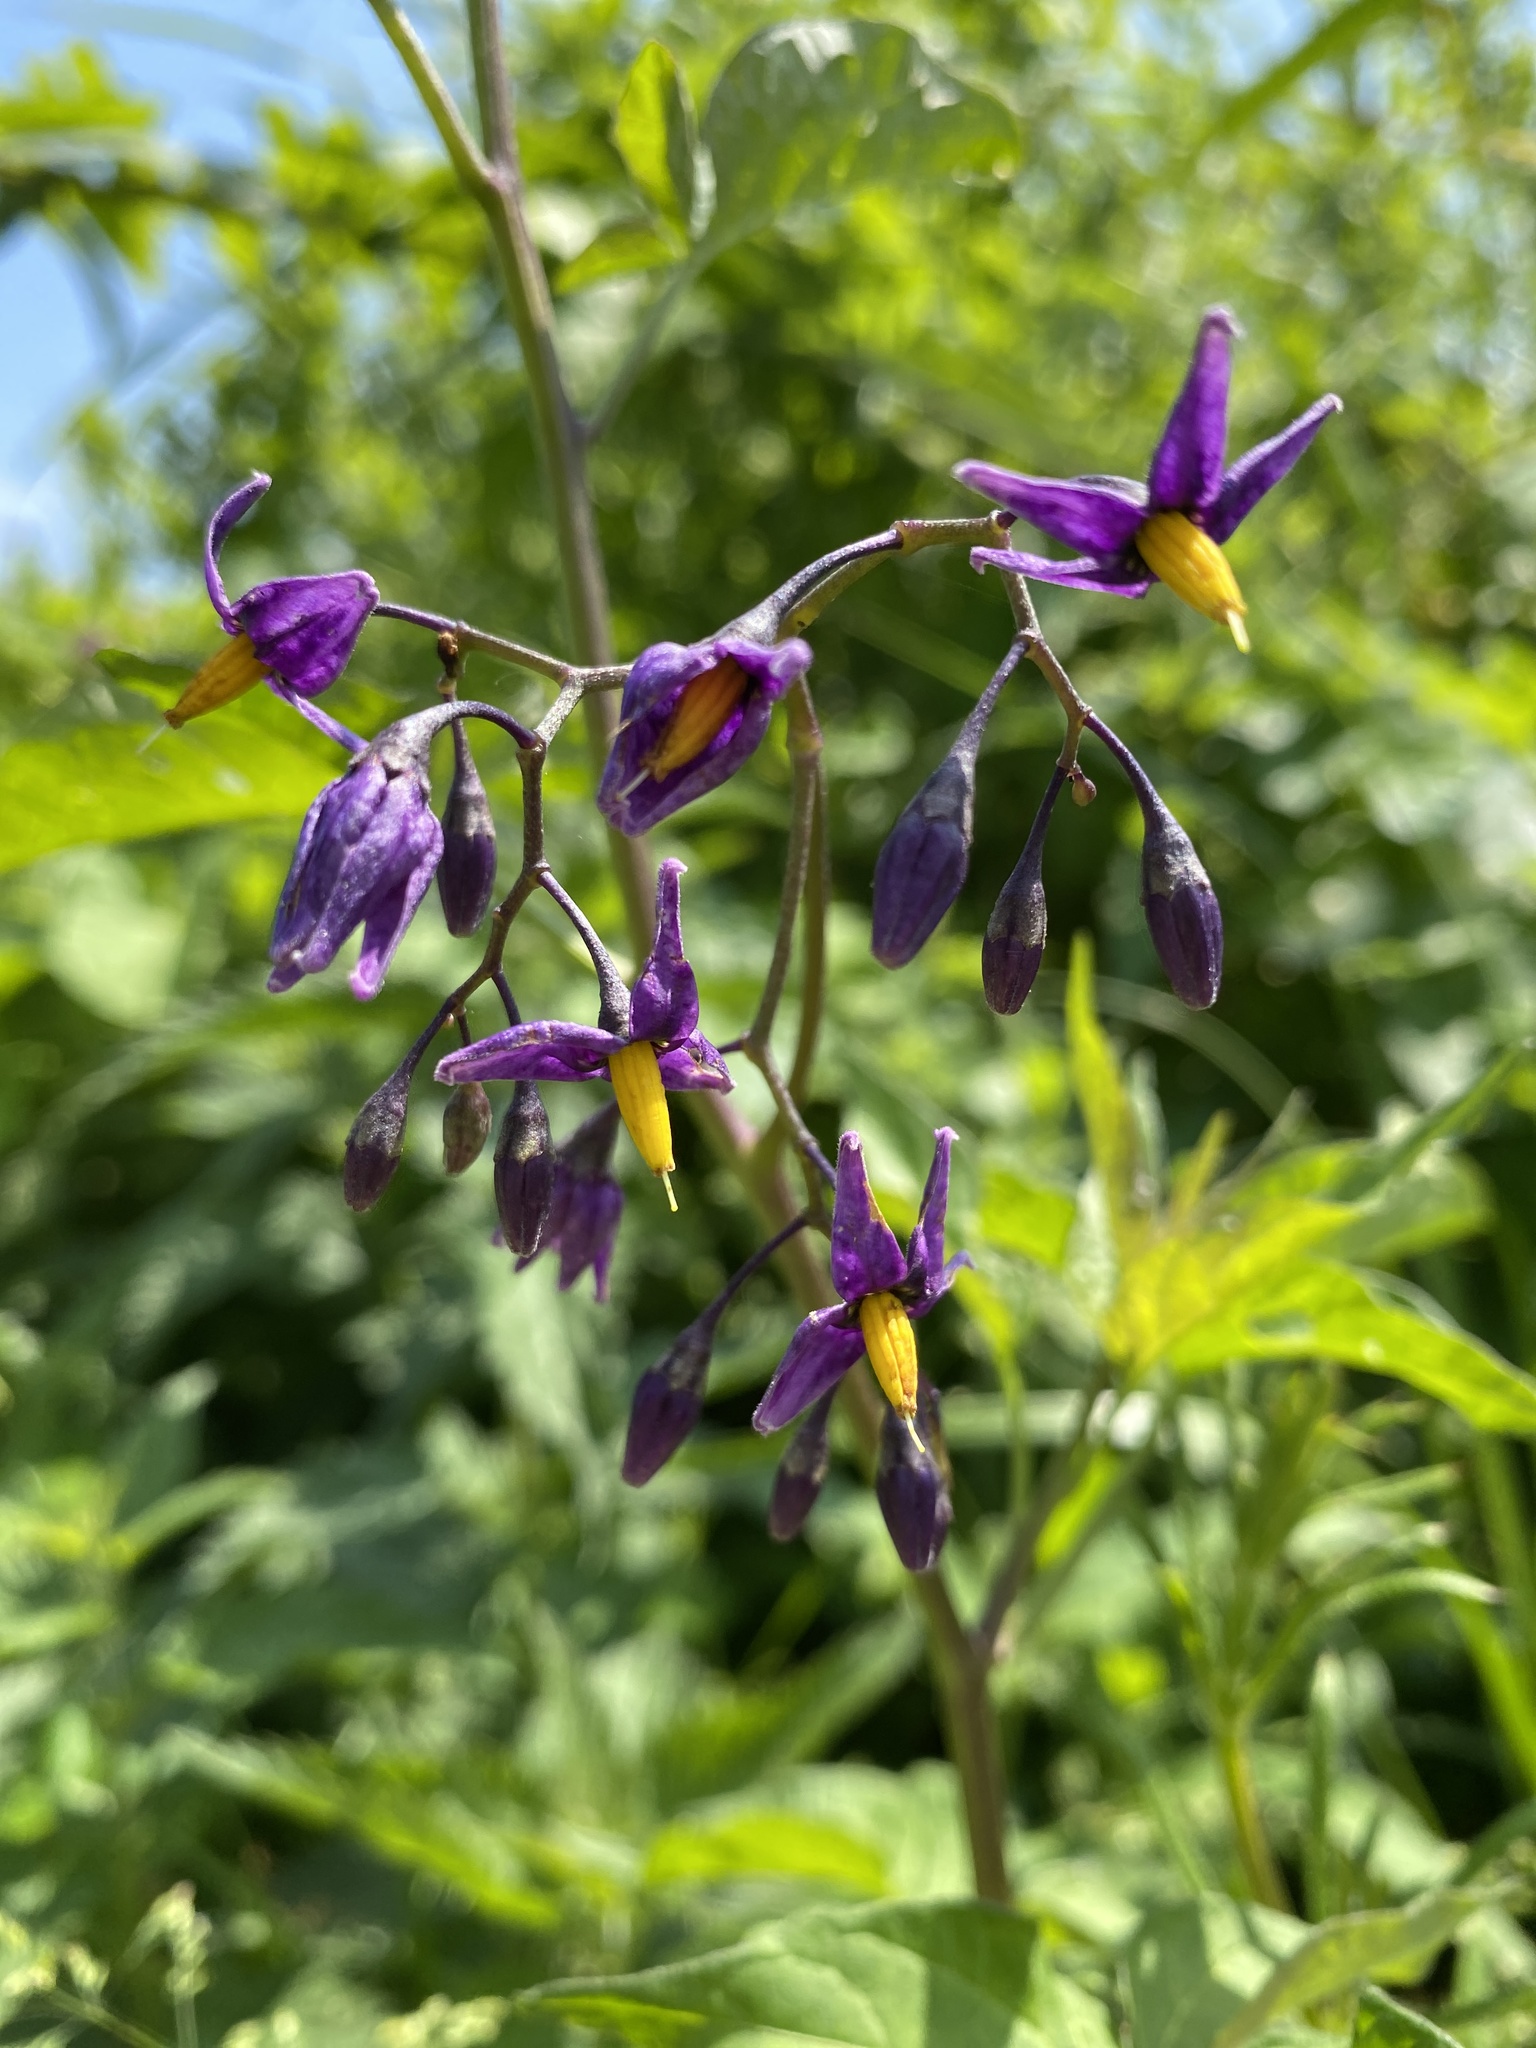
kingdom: Plantae
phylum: Tracheophyta
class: Magnoliopsida
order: Solanales
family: Solanaceae
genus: Solanum
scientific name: Solanum dulcamara
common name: Climbing nightshade
